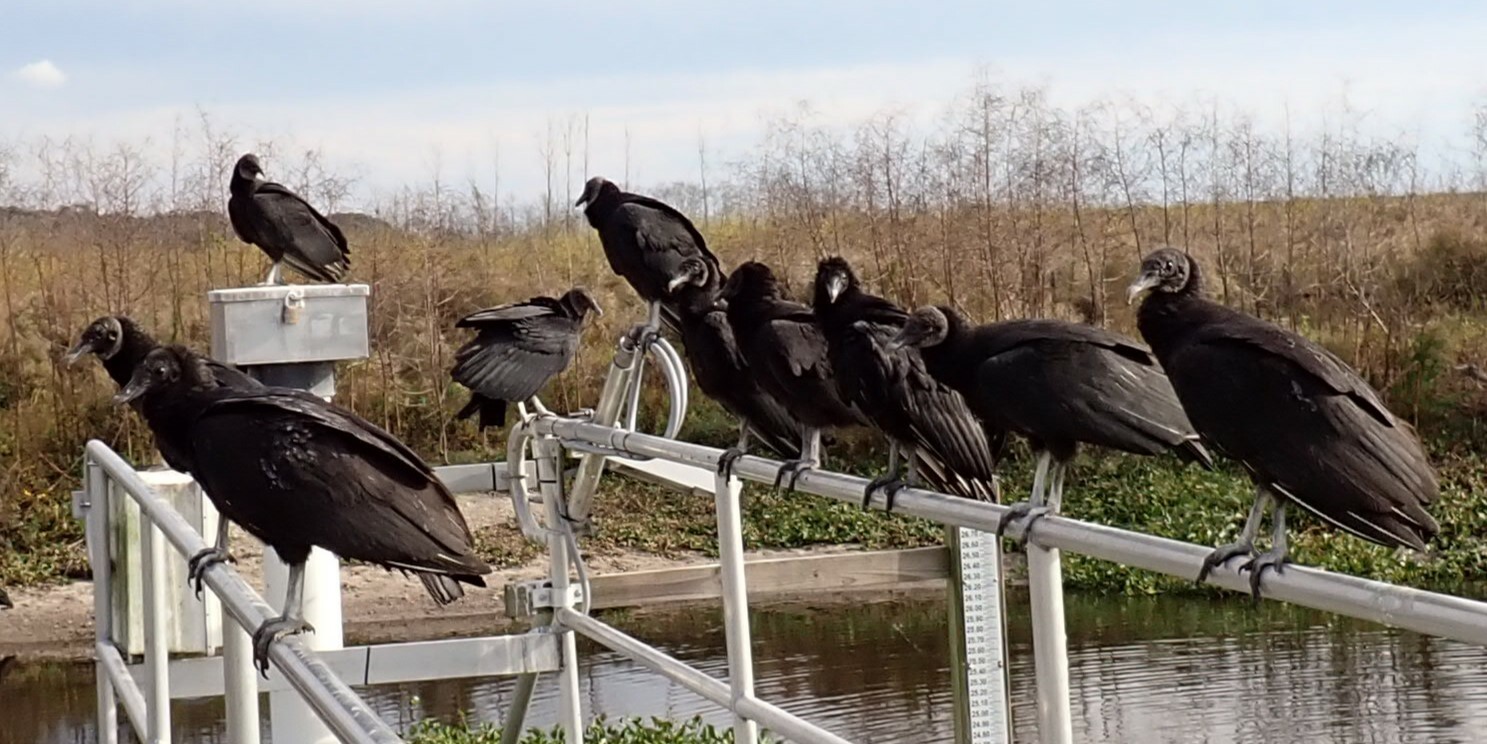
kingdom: Animalia
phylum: Chordata
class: Aves
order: Accipitriformes
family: Cathartidae
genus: Coragyps
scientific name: Coragyps atratus
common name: Black vulture
